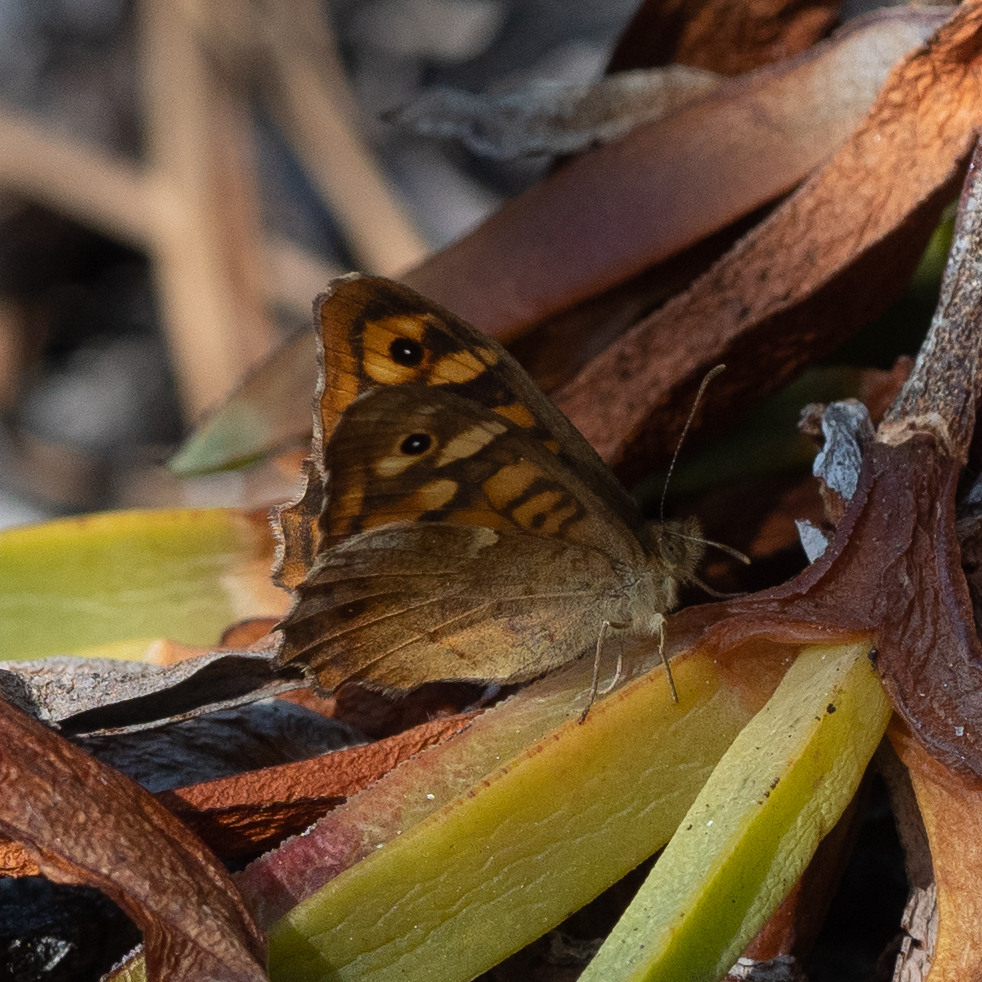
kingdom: Animalia
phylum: Arthropoda
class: Insecta
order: Lepidoptera
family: Nymphalidae
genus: Pararge
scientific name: Pararge aegeria
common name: Speckled wood
